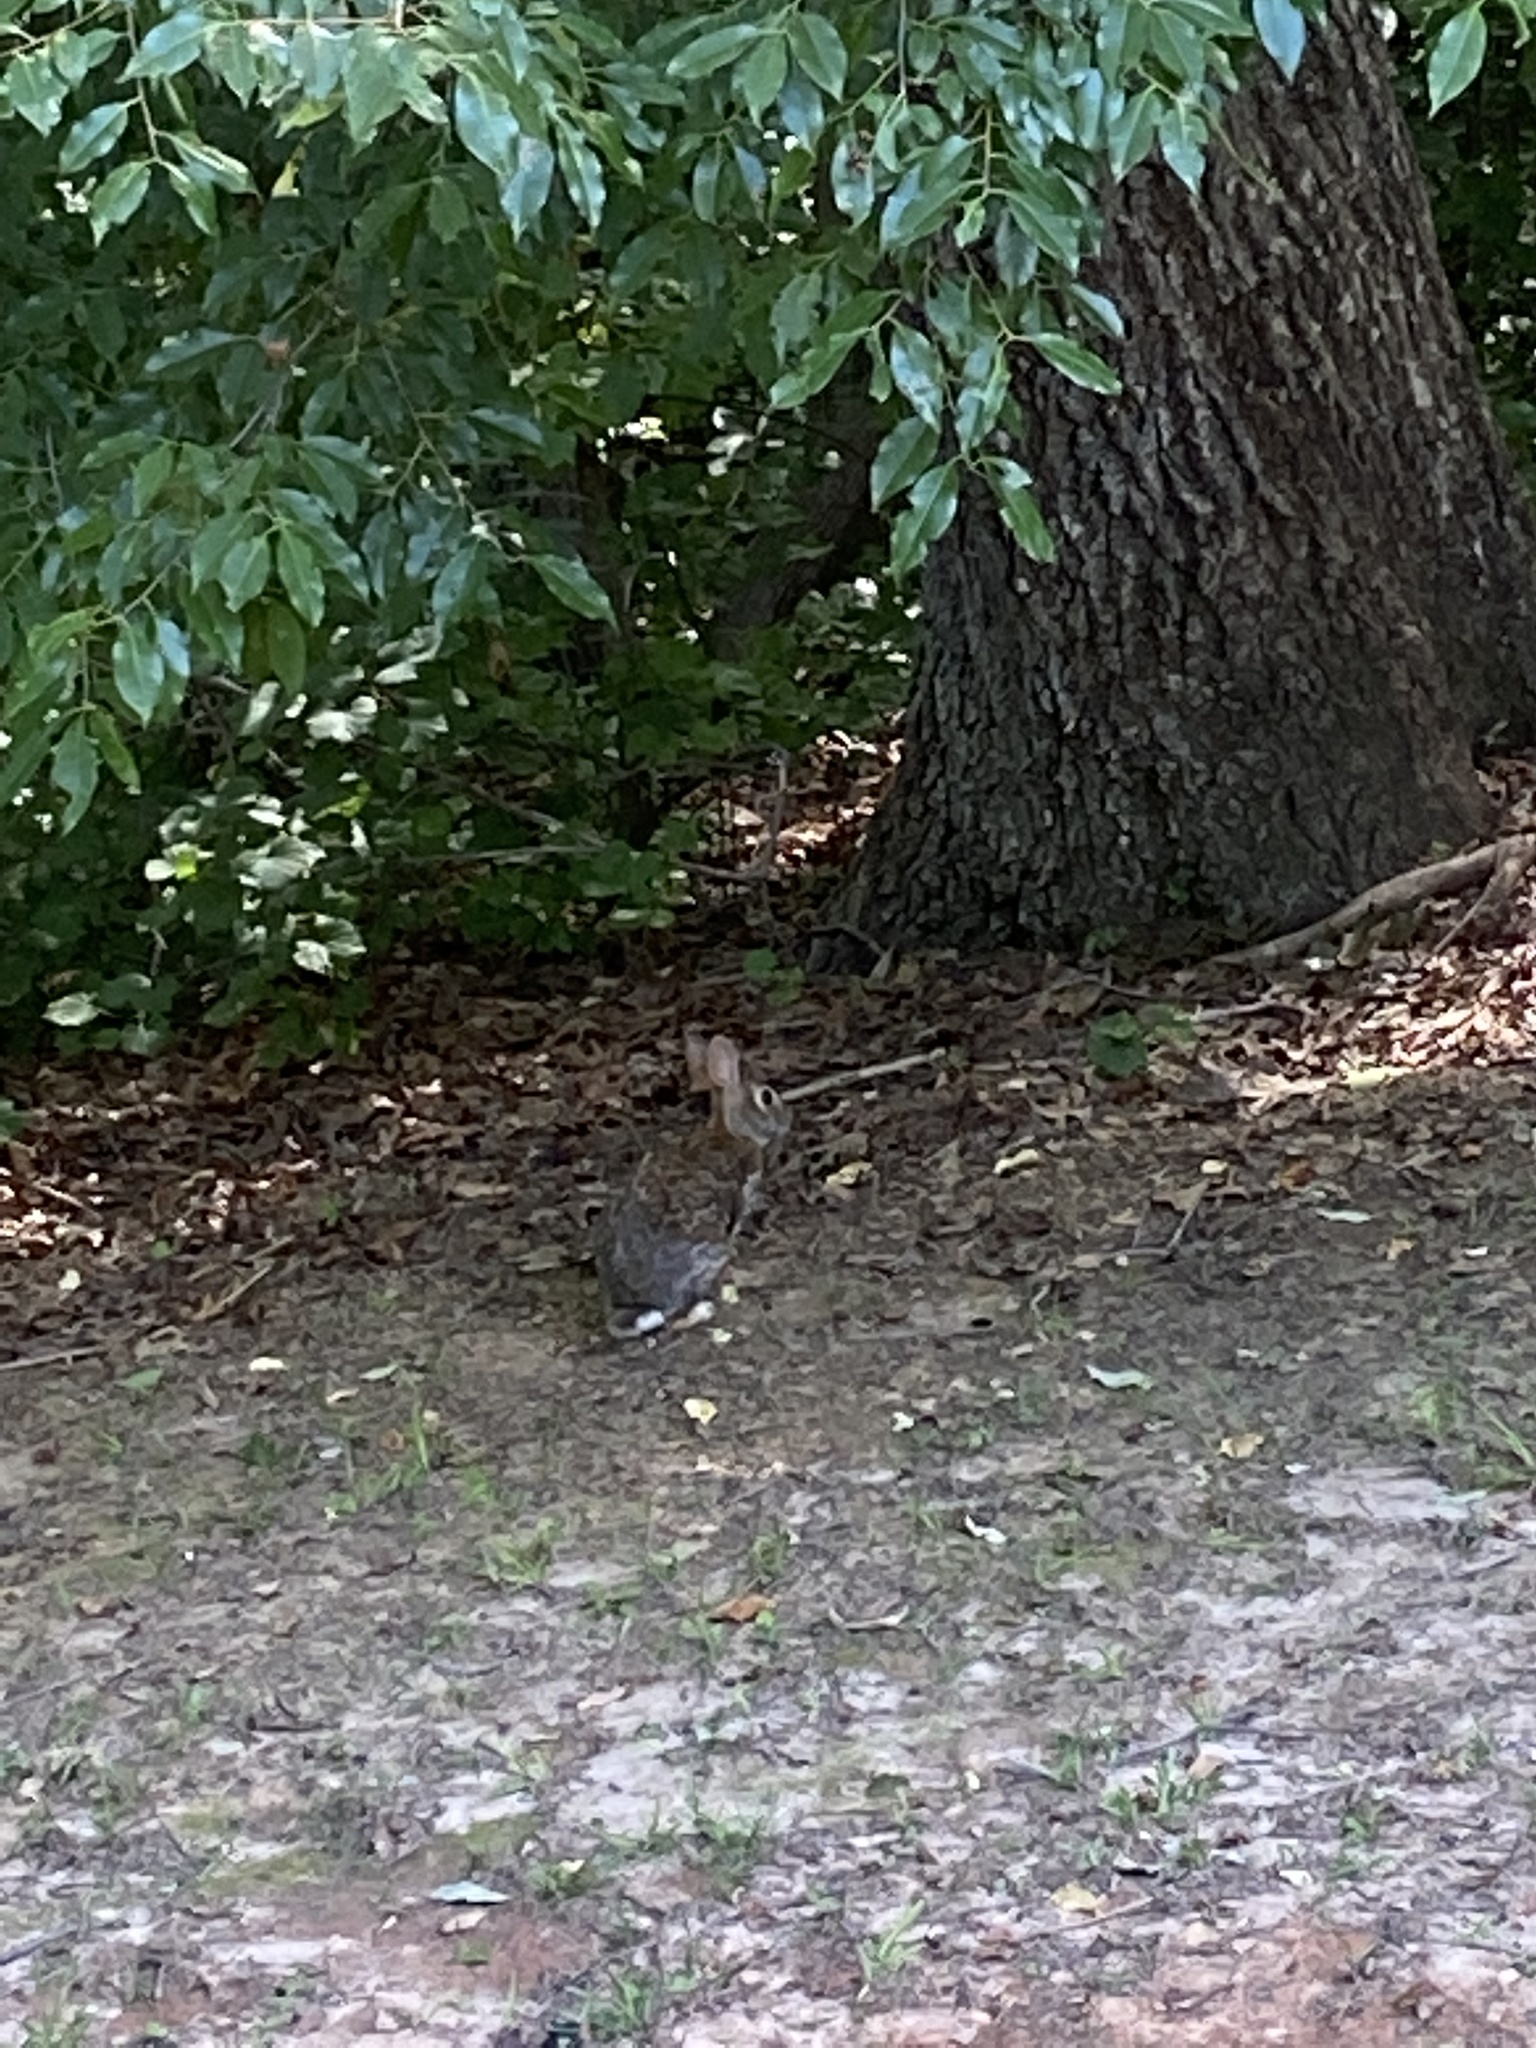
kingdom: Animalia
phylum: Chordata
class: Mammalia
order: Lagomorpha
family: Leporidae
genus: Sylvilagus
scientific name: Sylvilagus floridanus
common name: Eastern cottontail
